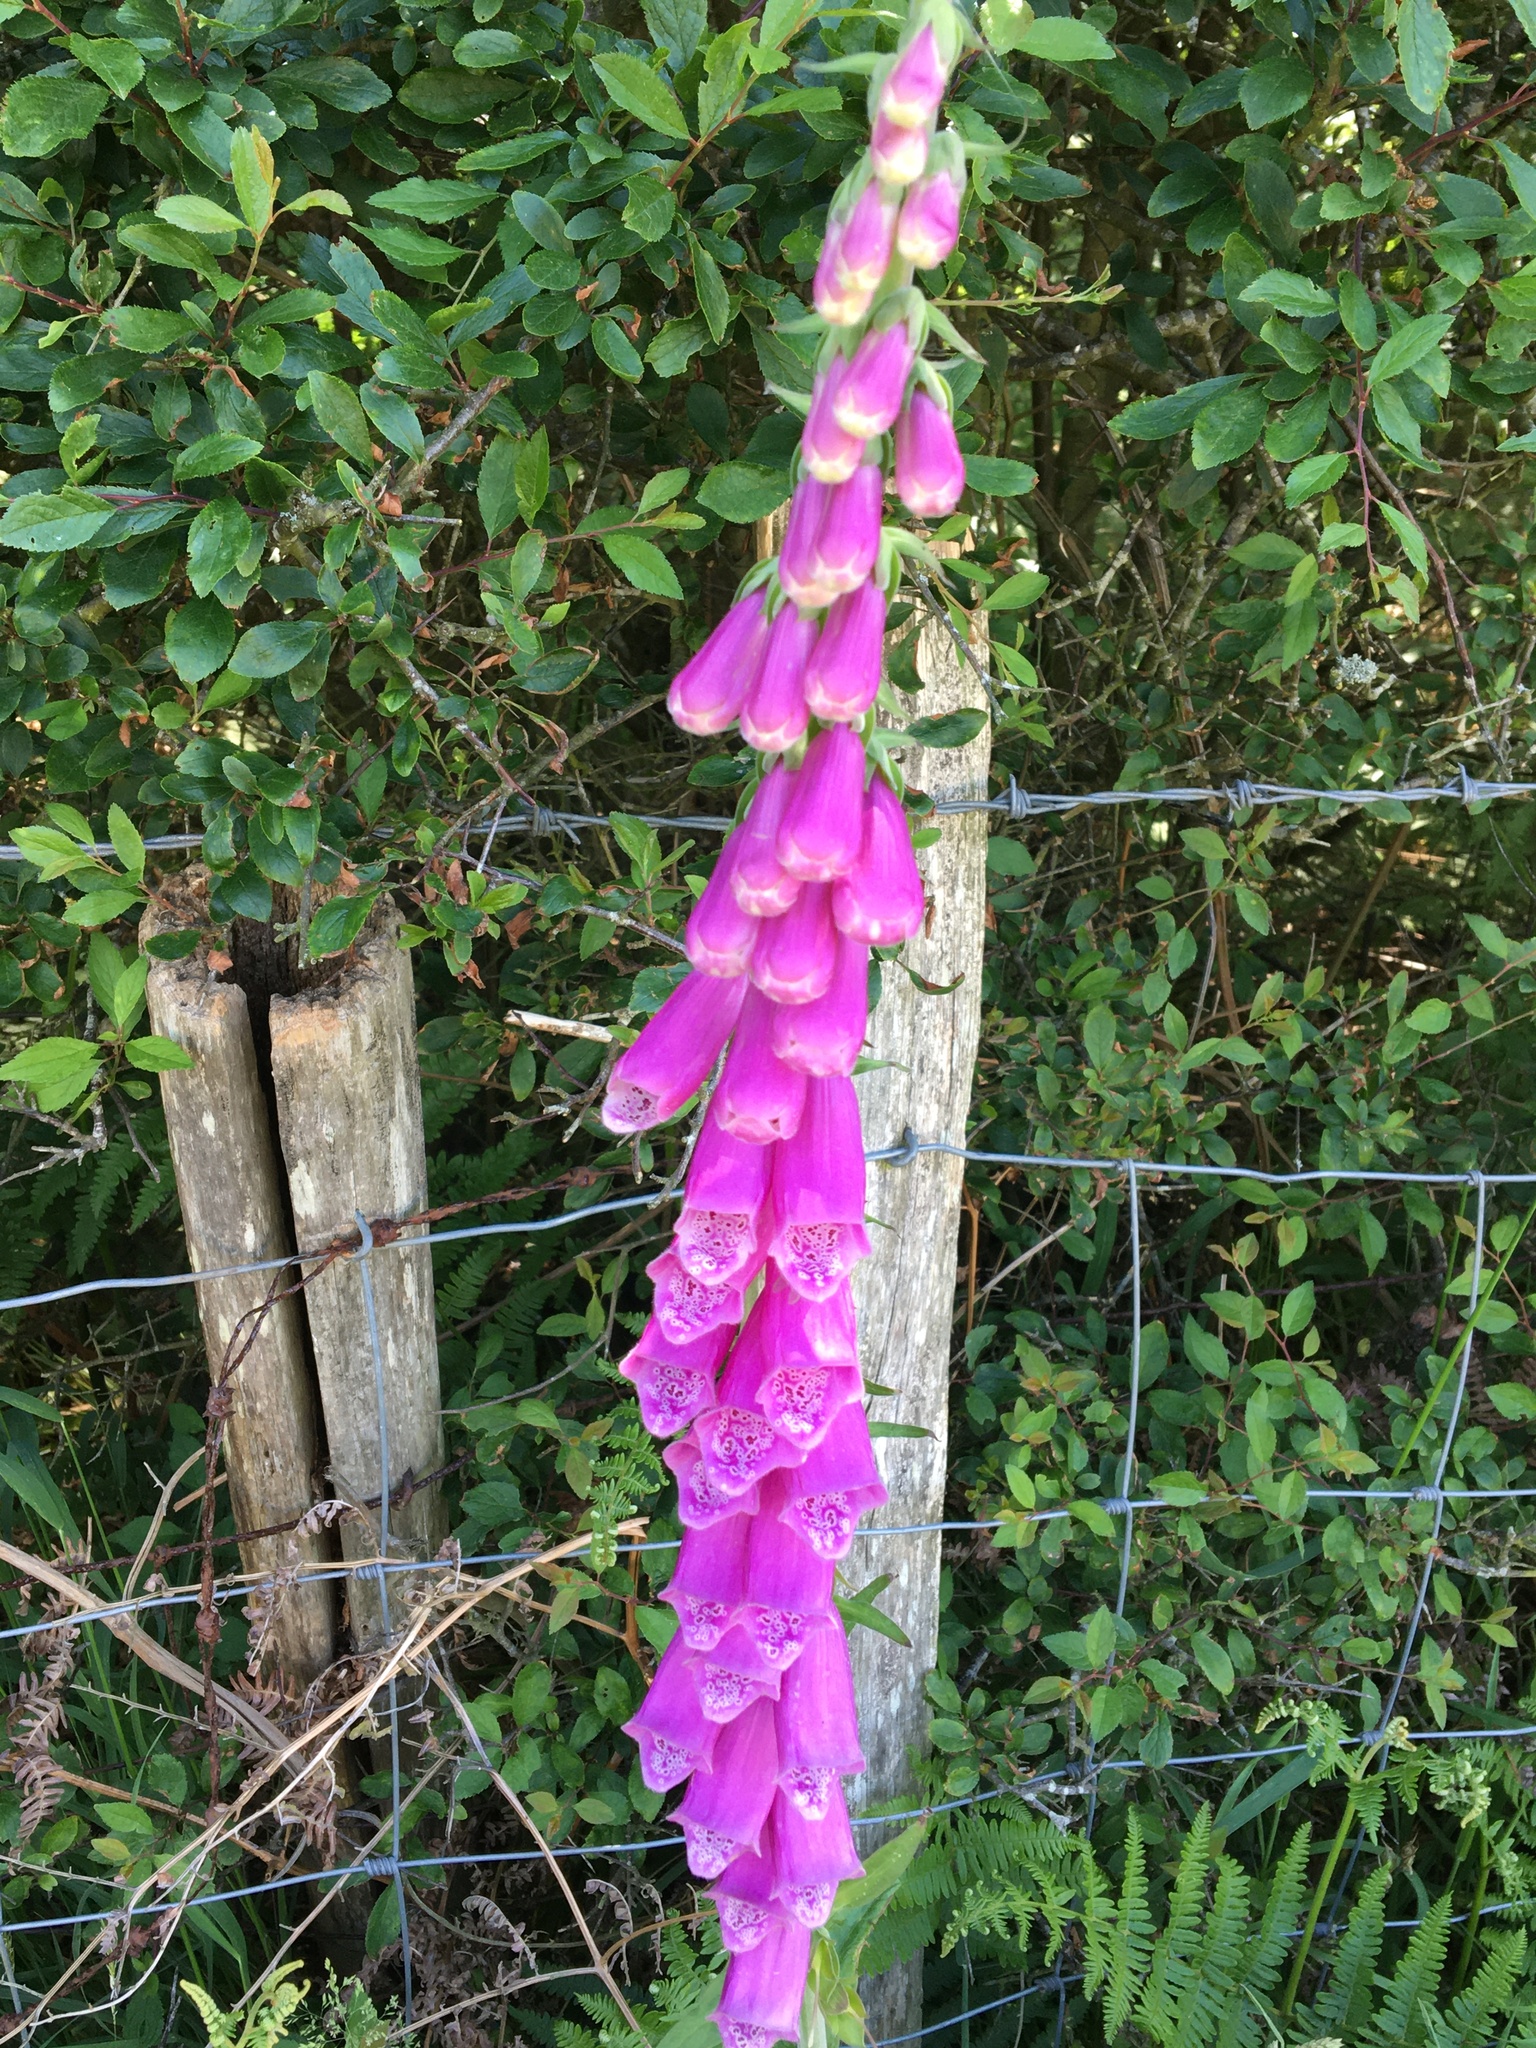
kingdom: Plantae
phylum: Tracheophyta
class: Magnoliopsida
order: Lamiales
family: Plantaginaceae
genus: Digitalis
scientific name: Digitalis purpurea
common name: Foxglove
